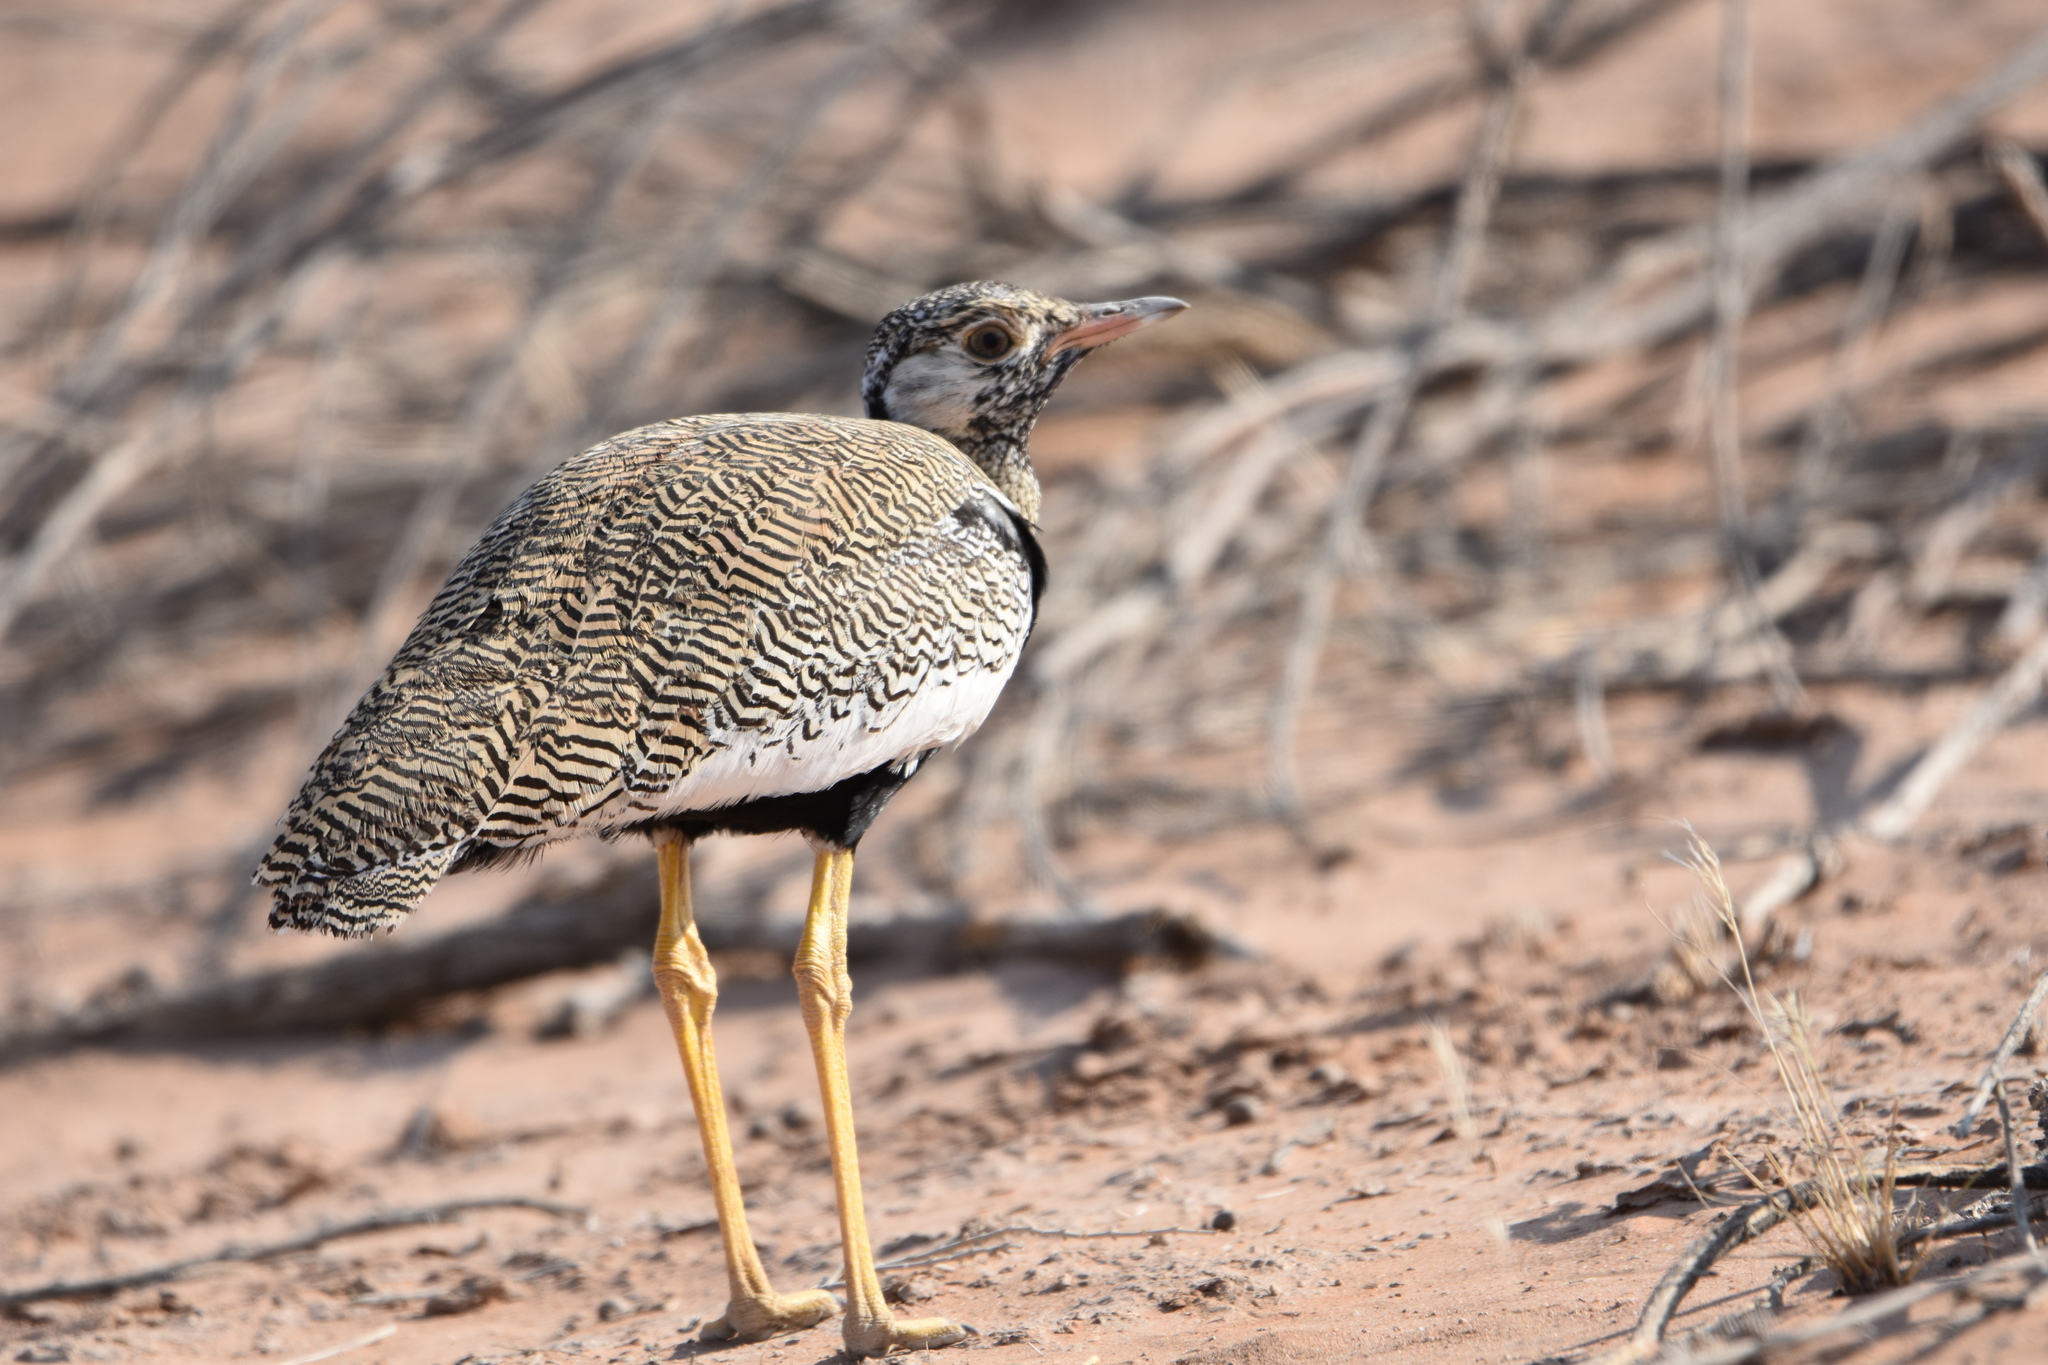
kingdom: Animalia
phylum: Chordata
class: Aves
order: Otidiformes
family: Otididae
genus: Afrotis
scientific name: Afrotis afraoides
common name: Northern black korhaan
